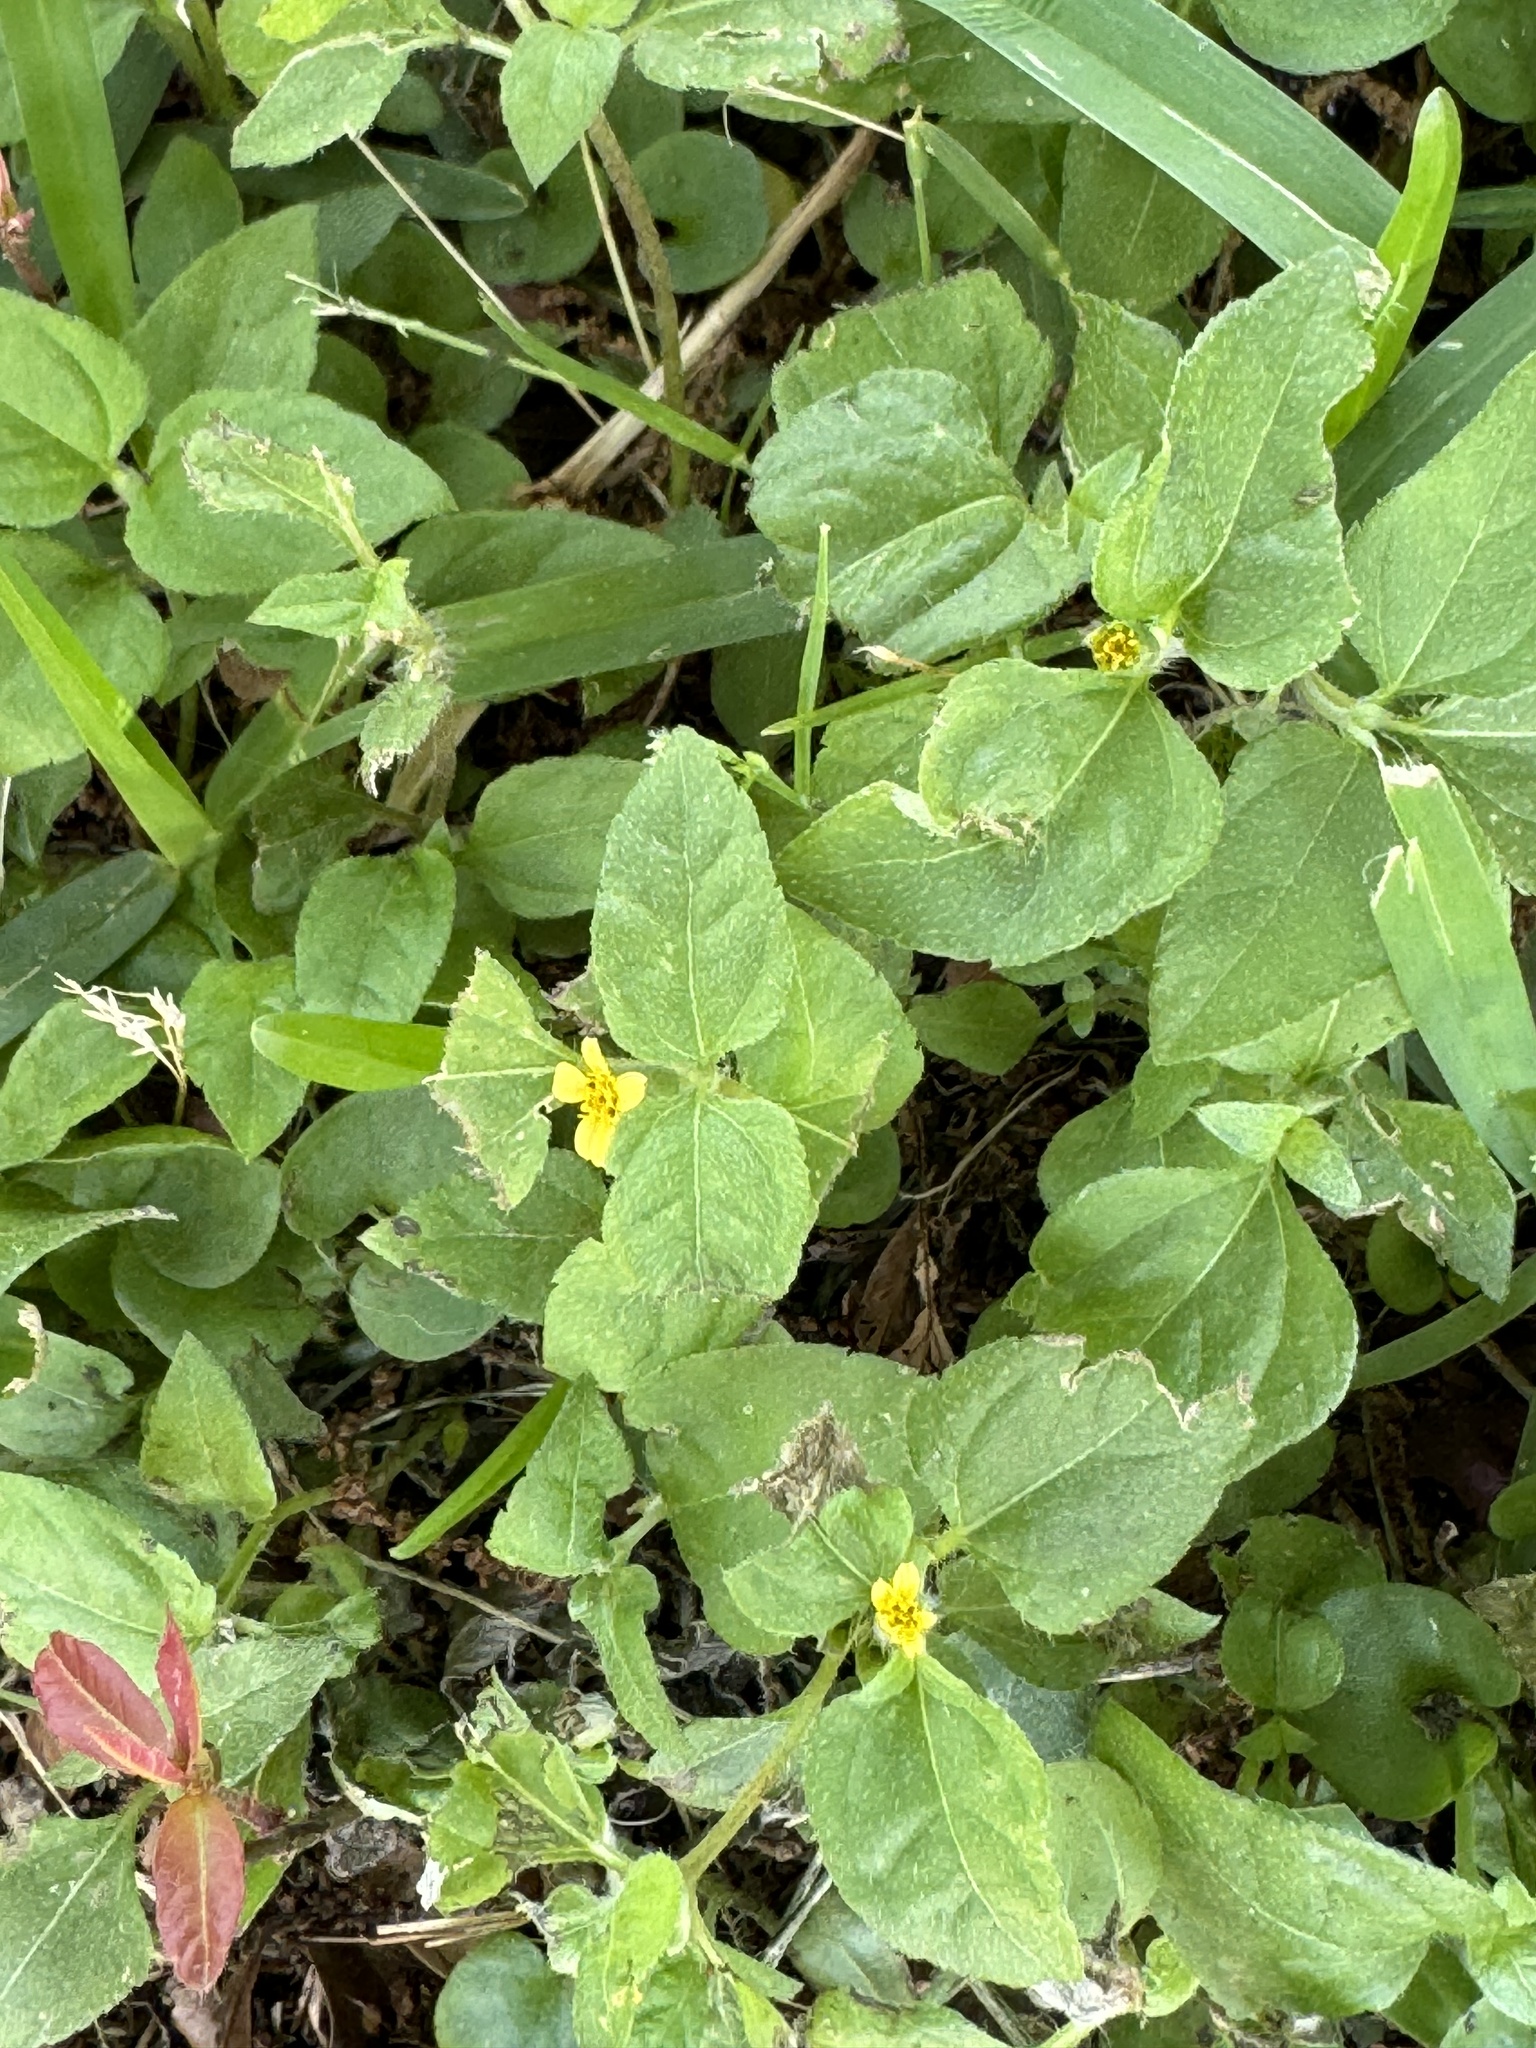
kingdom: Plantae
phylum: Tracheophyta
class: Magnoliopsida
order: Asterales
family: Asteraceae
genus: Calyptocarpus
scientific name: Calyptocarpus vialis
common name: Straggler daisy
